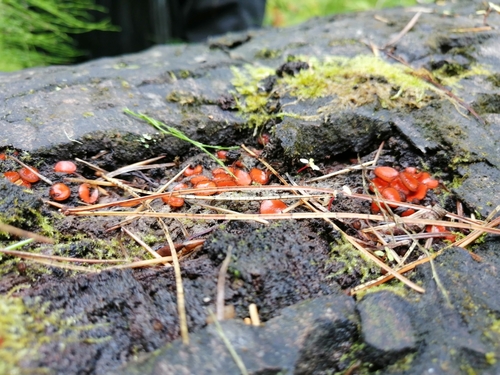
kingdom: Fungi
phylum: Ascomycota
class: Pezizomycetes
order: Pezizales
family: Pyronemataceae
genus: Scutellinia
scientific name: Scutellinia
